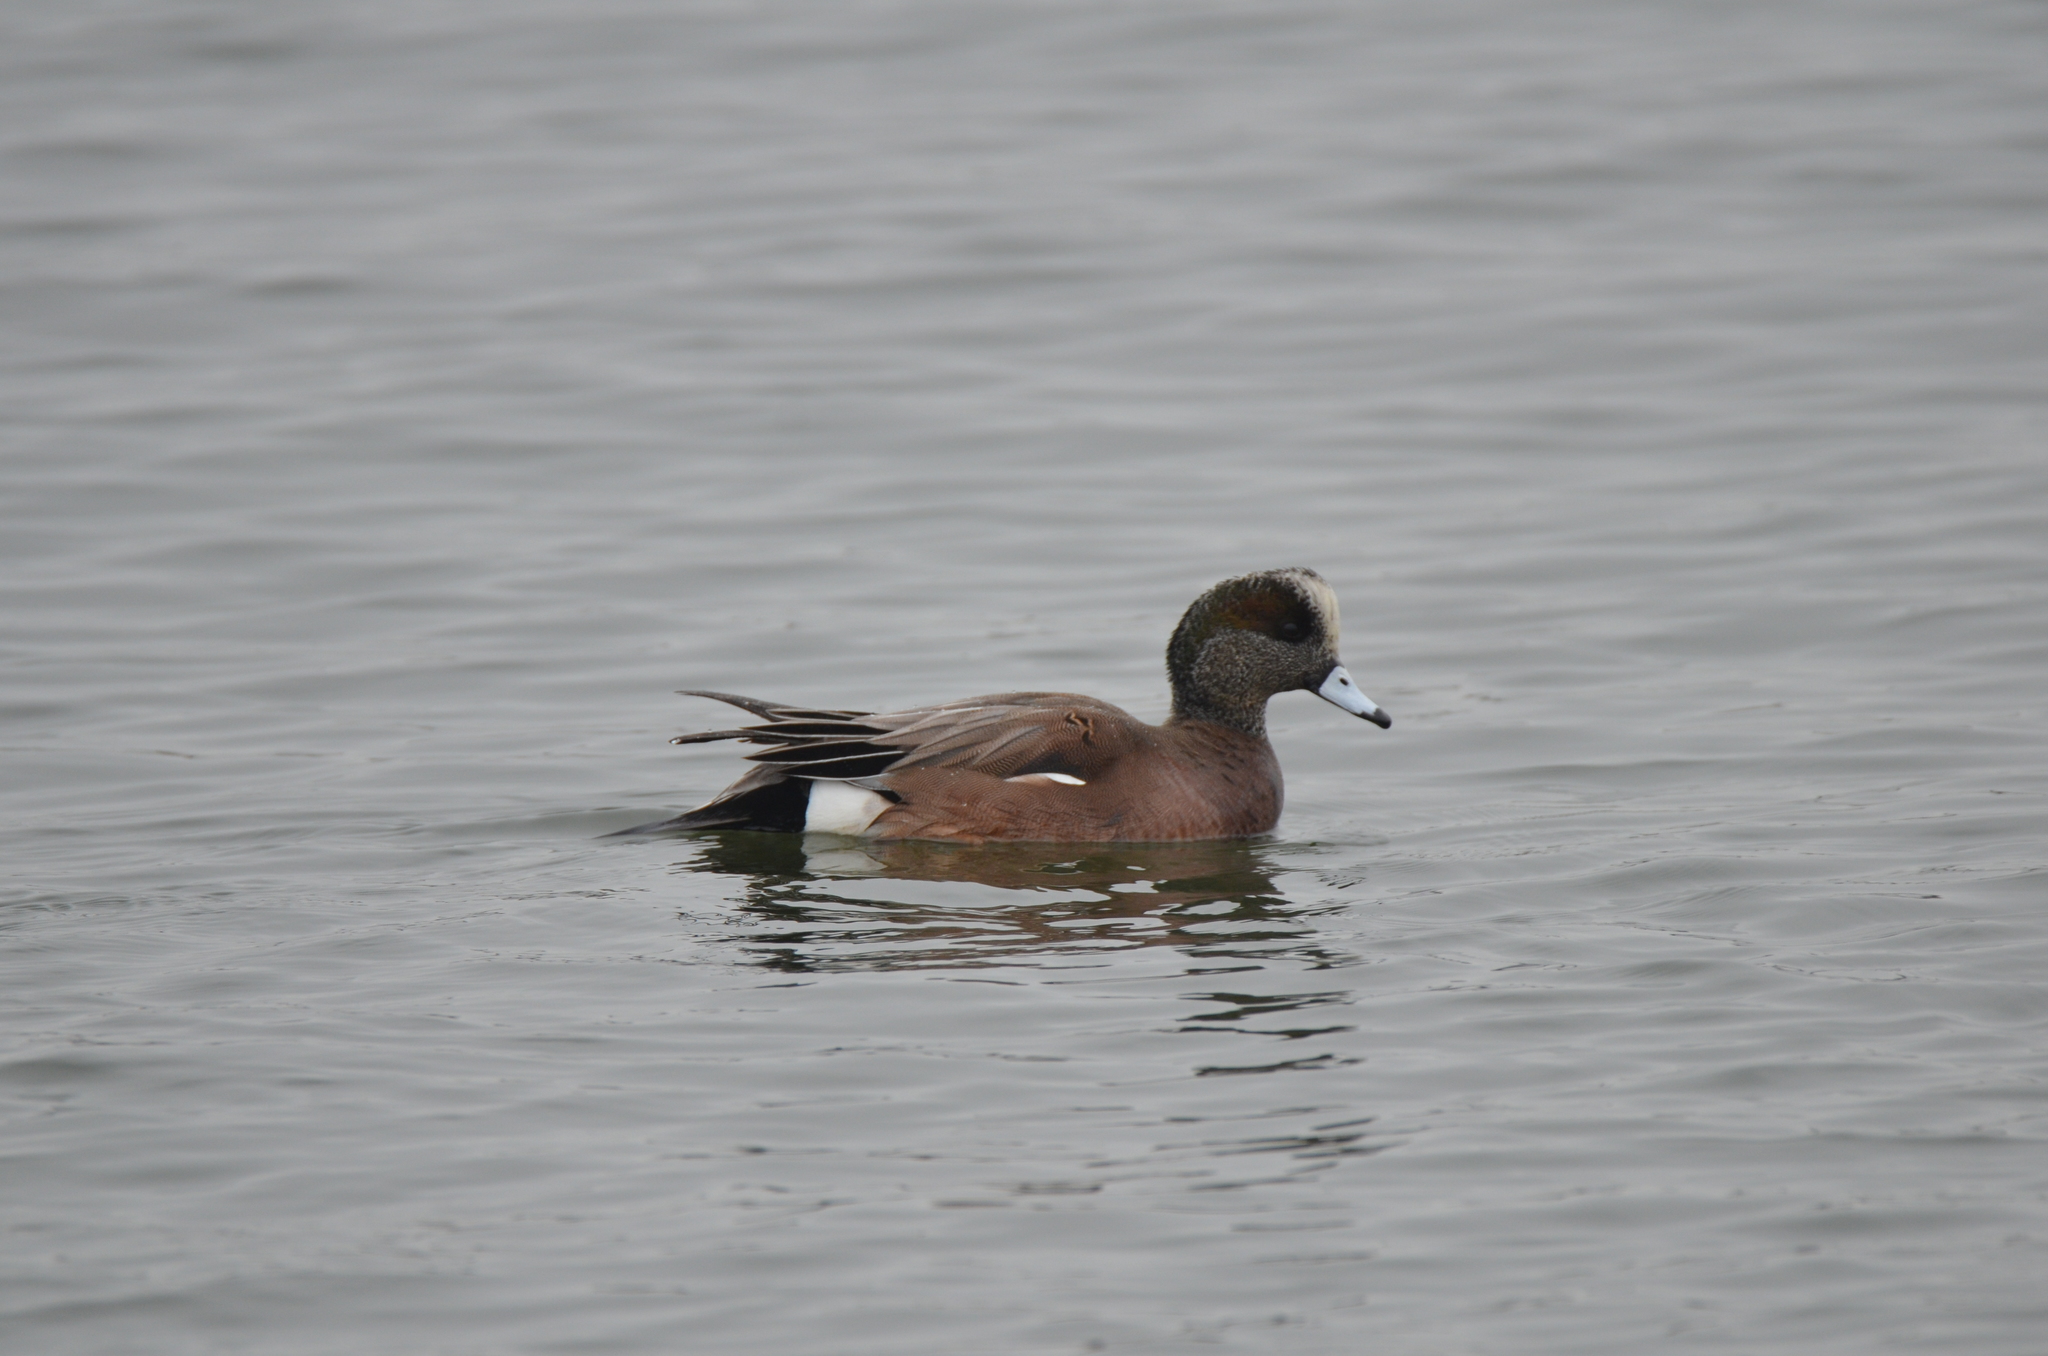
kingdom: Animalia
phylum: Chordata
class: Aves
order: Anseriformes
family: Anatidae
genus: Mareca
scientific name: Mareca americana
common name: American wigeon
